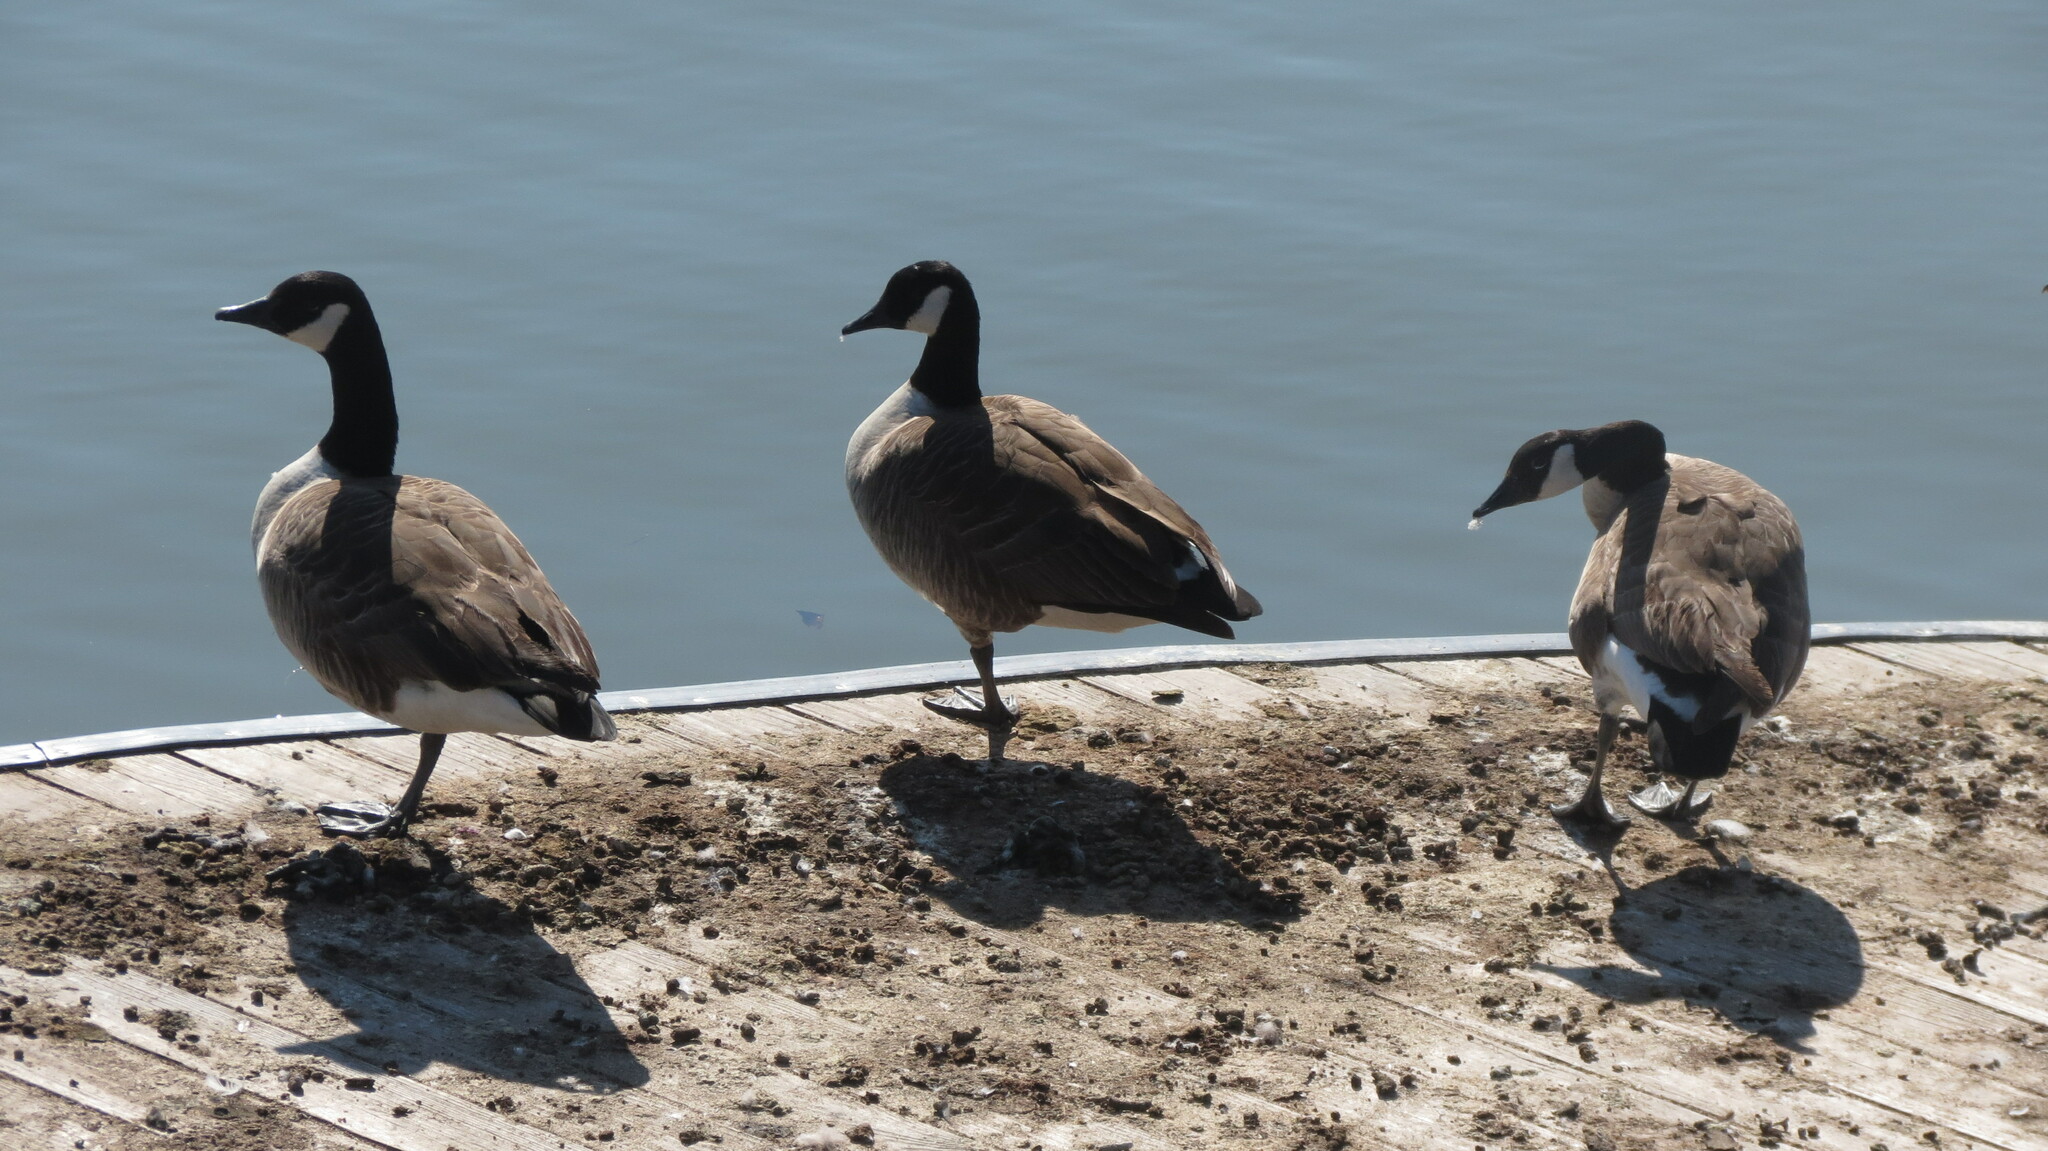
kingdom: Animalia
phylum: Chordata
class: Aves
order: Anseriformes
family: Anatidae
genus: Branta
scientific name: Branta canadensis
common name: Canada goose
